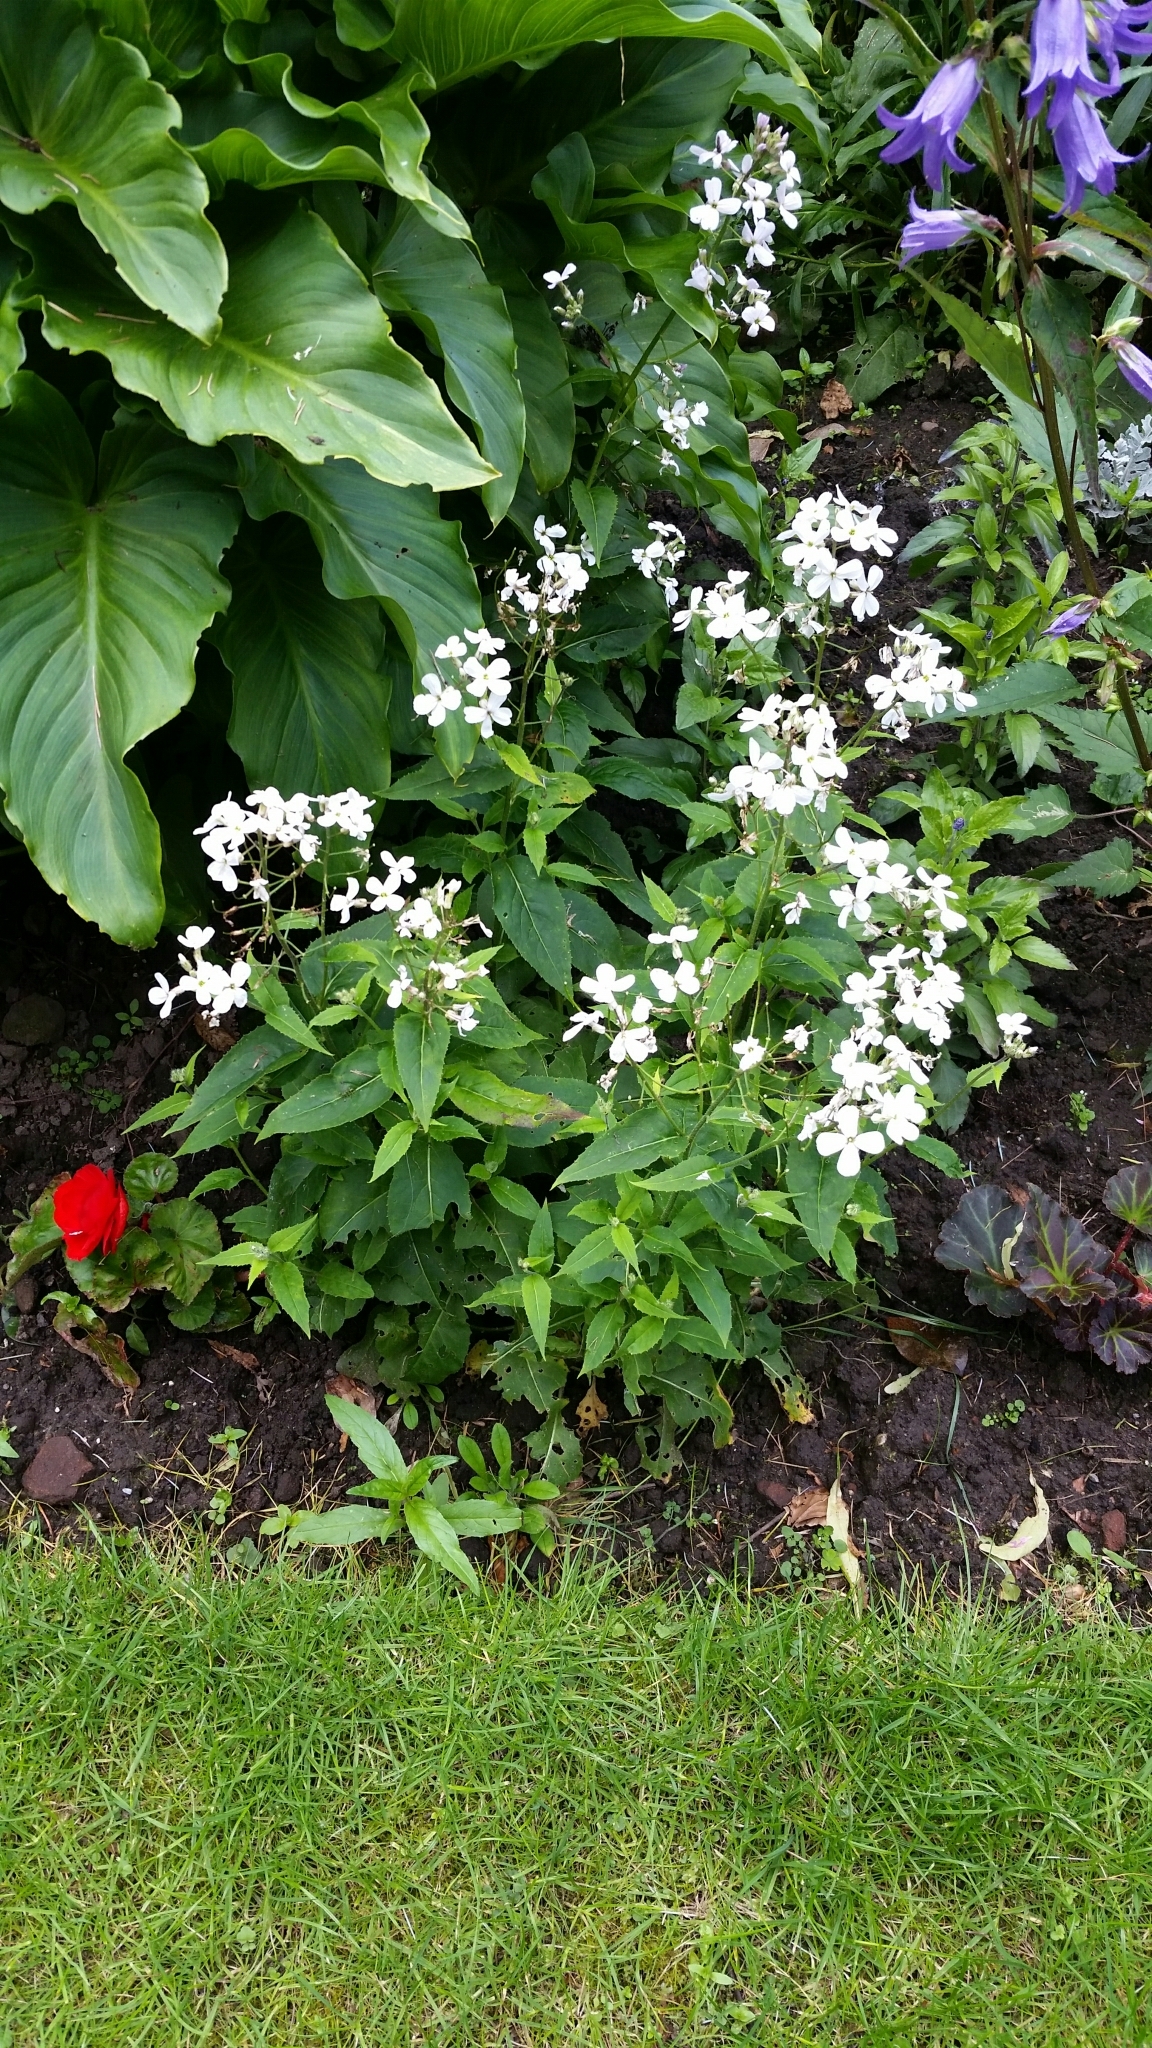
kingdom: Plantae
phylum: Tracheophyta
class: Magnoliopsida
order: Brassicales
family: Brassicaceae
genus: Hesperis
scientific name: Hesperis matronalis
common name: Dame's-violet
